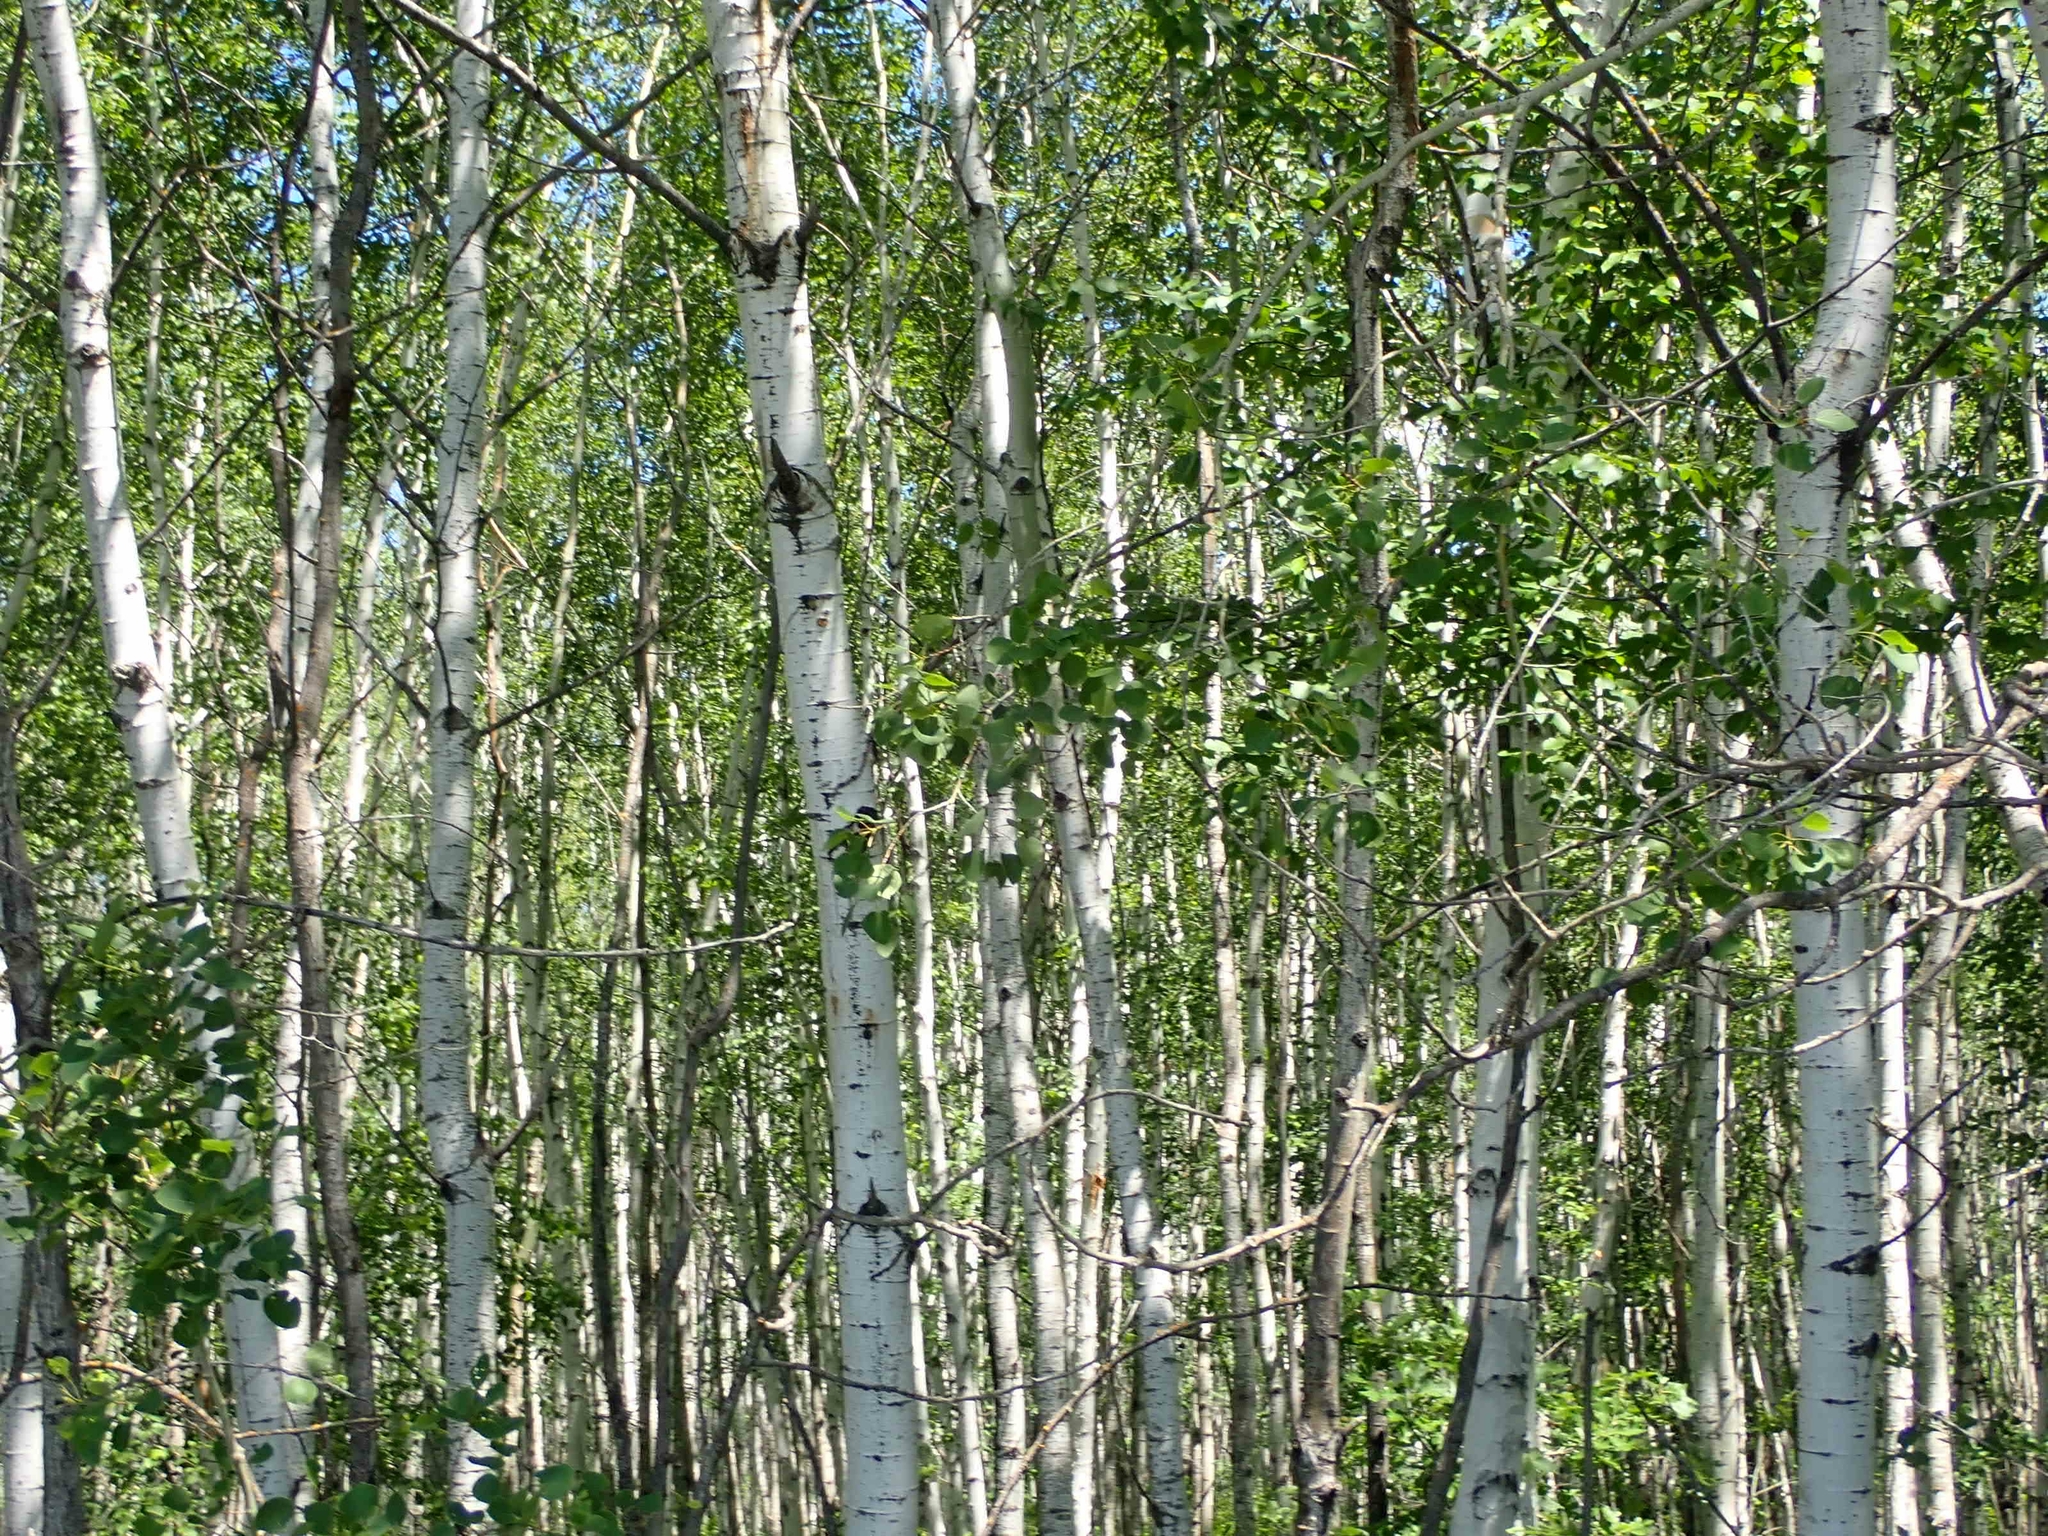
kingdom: Plantae
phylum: Tracheophyta
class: Magnoliopsida
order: Malpighiales
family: Salicaceae
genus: Populus
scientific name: Populus tremuloides
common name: Quaking aspen
